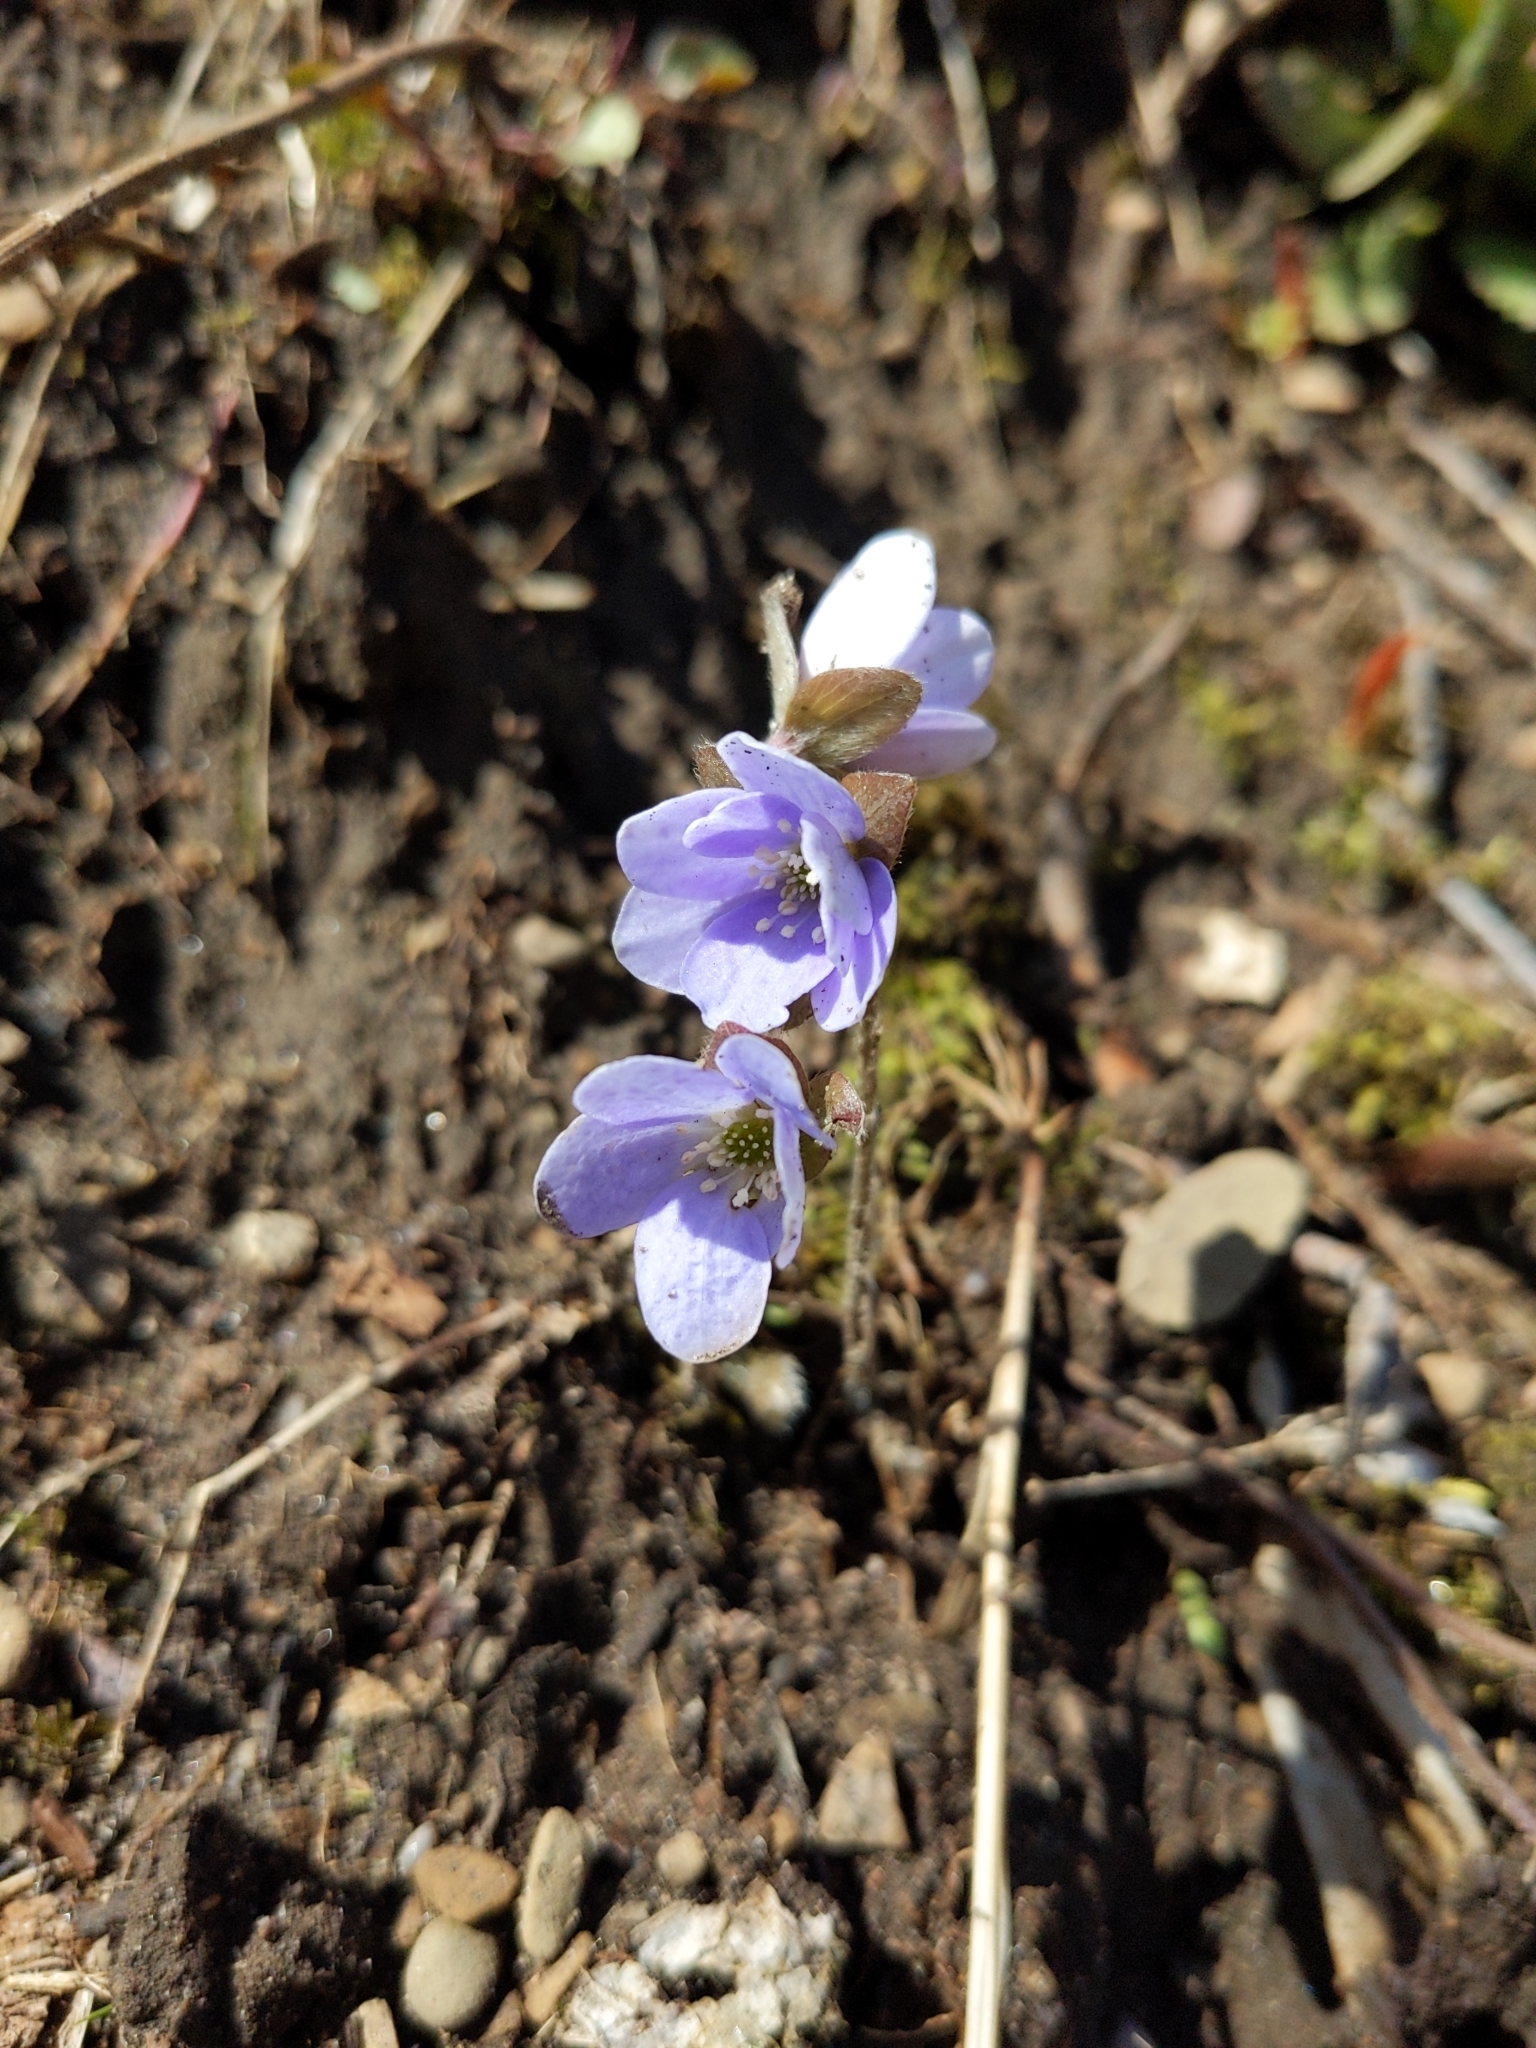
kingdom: Plantae
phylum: Tracheophyta
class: Magnoliopsida
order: Ranunculales
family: Ranunculaceae
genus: Hepatica
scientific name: Hepatica americana
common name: American hepatica
